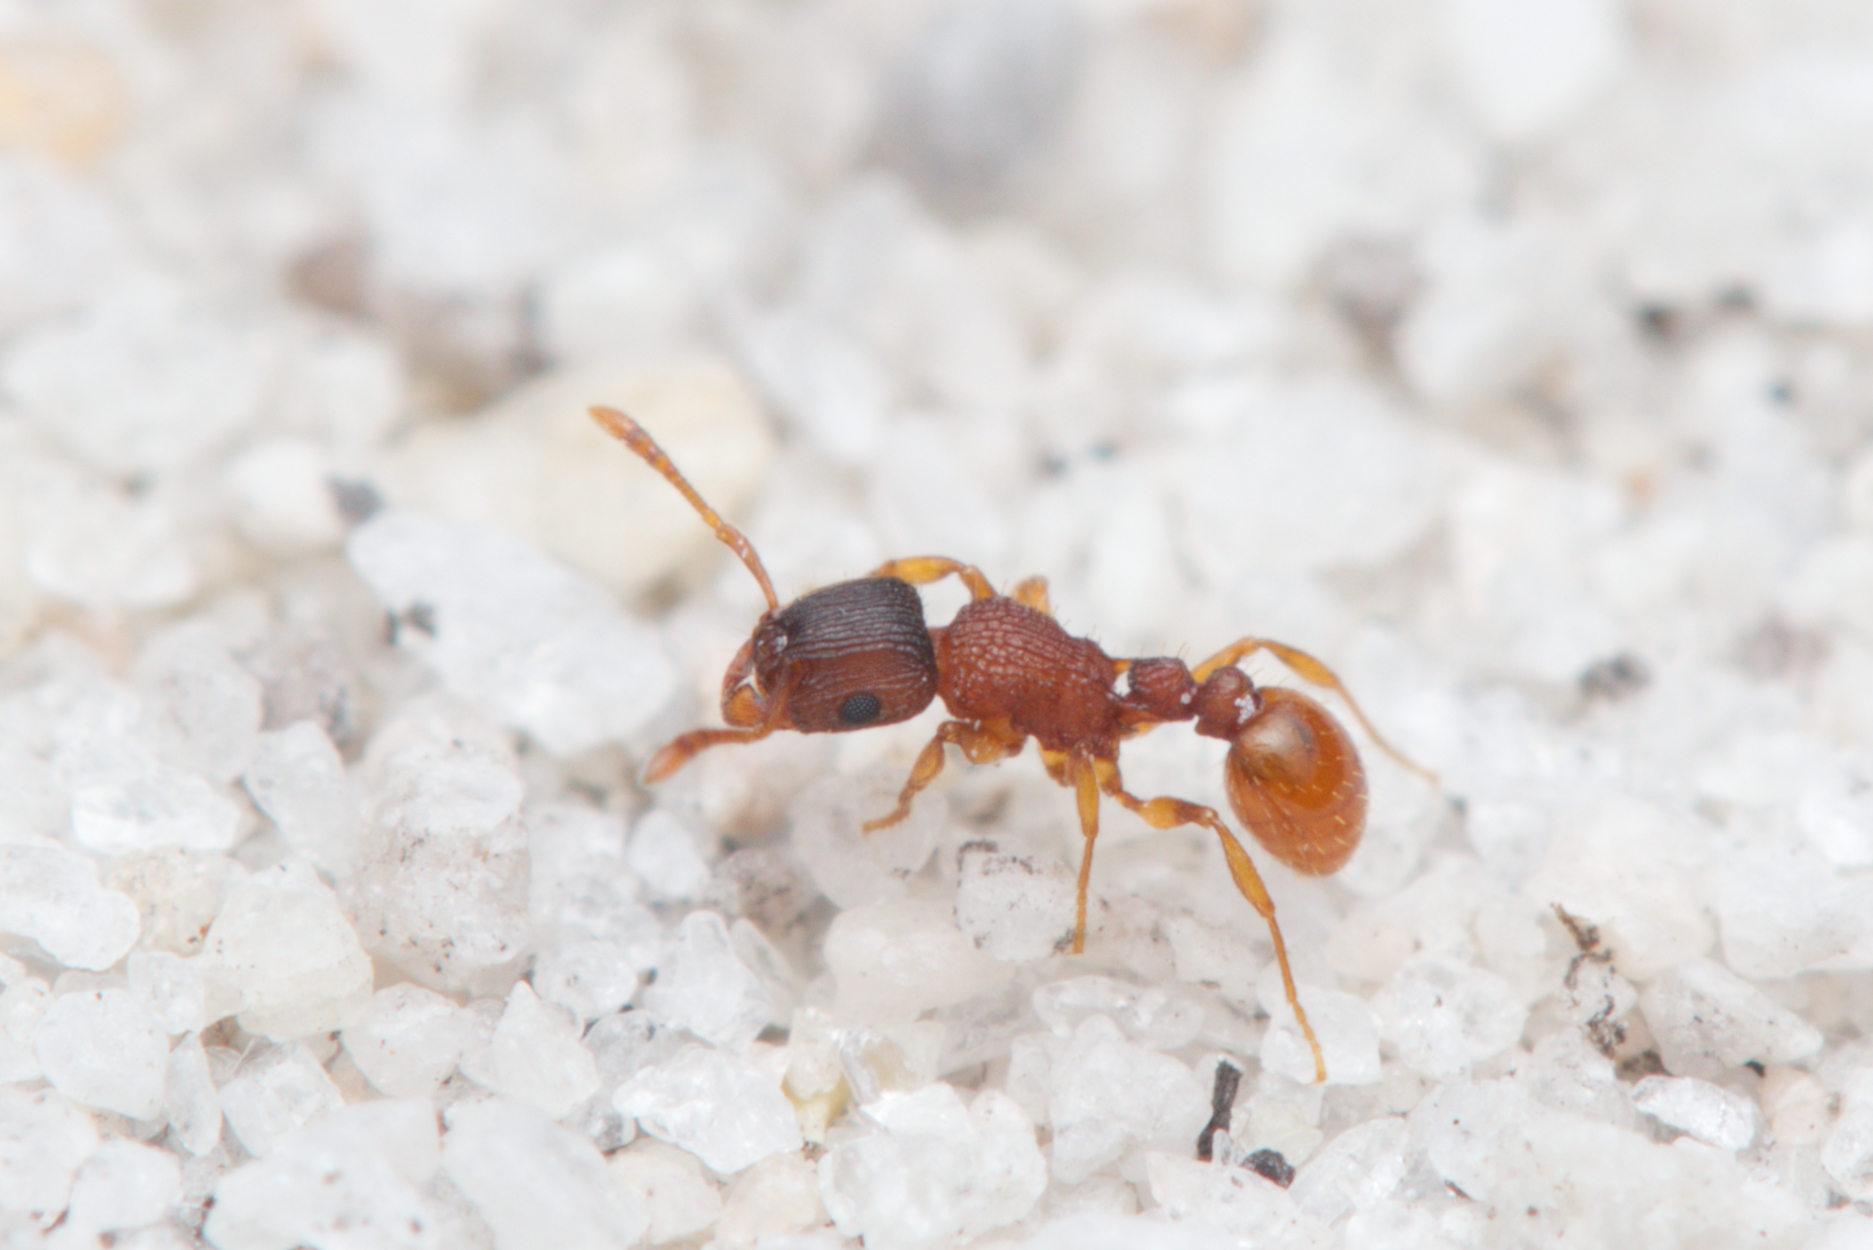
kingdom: Animalia
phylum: Arthropoda
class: Insecta
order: Hymenoptera
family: Formicidae
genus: Tetramorium
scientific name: Tetramorium fuscipes
